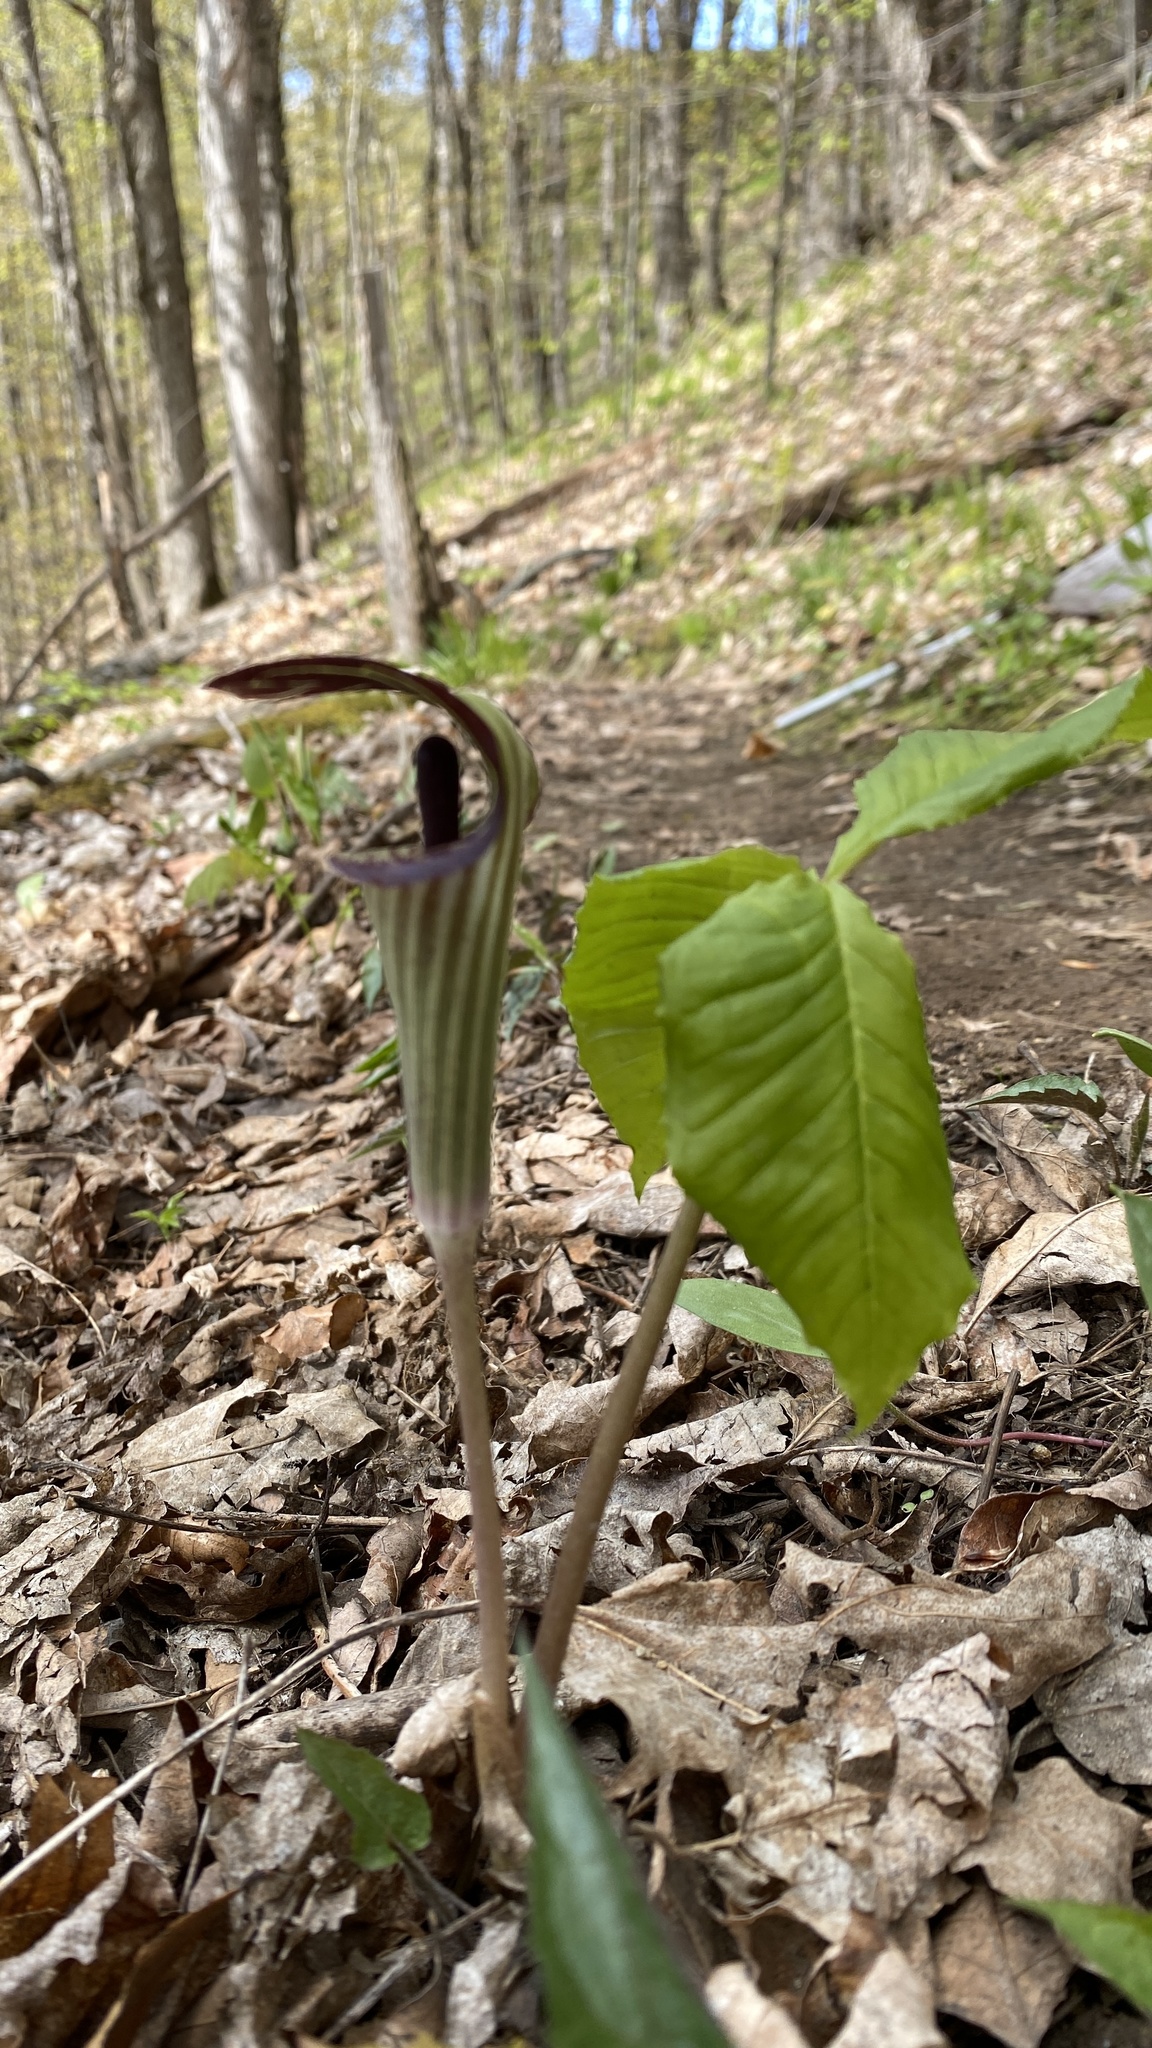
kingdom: Plantae
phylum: Tracheophyta
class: Liliopsida
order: Alismatales
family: Araceae
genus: Arisaema
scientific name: Arisaema triphyllum
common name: Jack-in-the-pulpit
